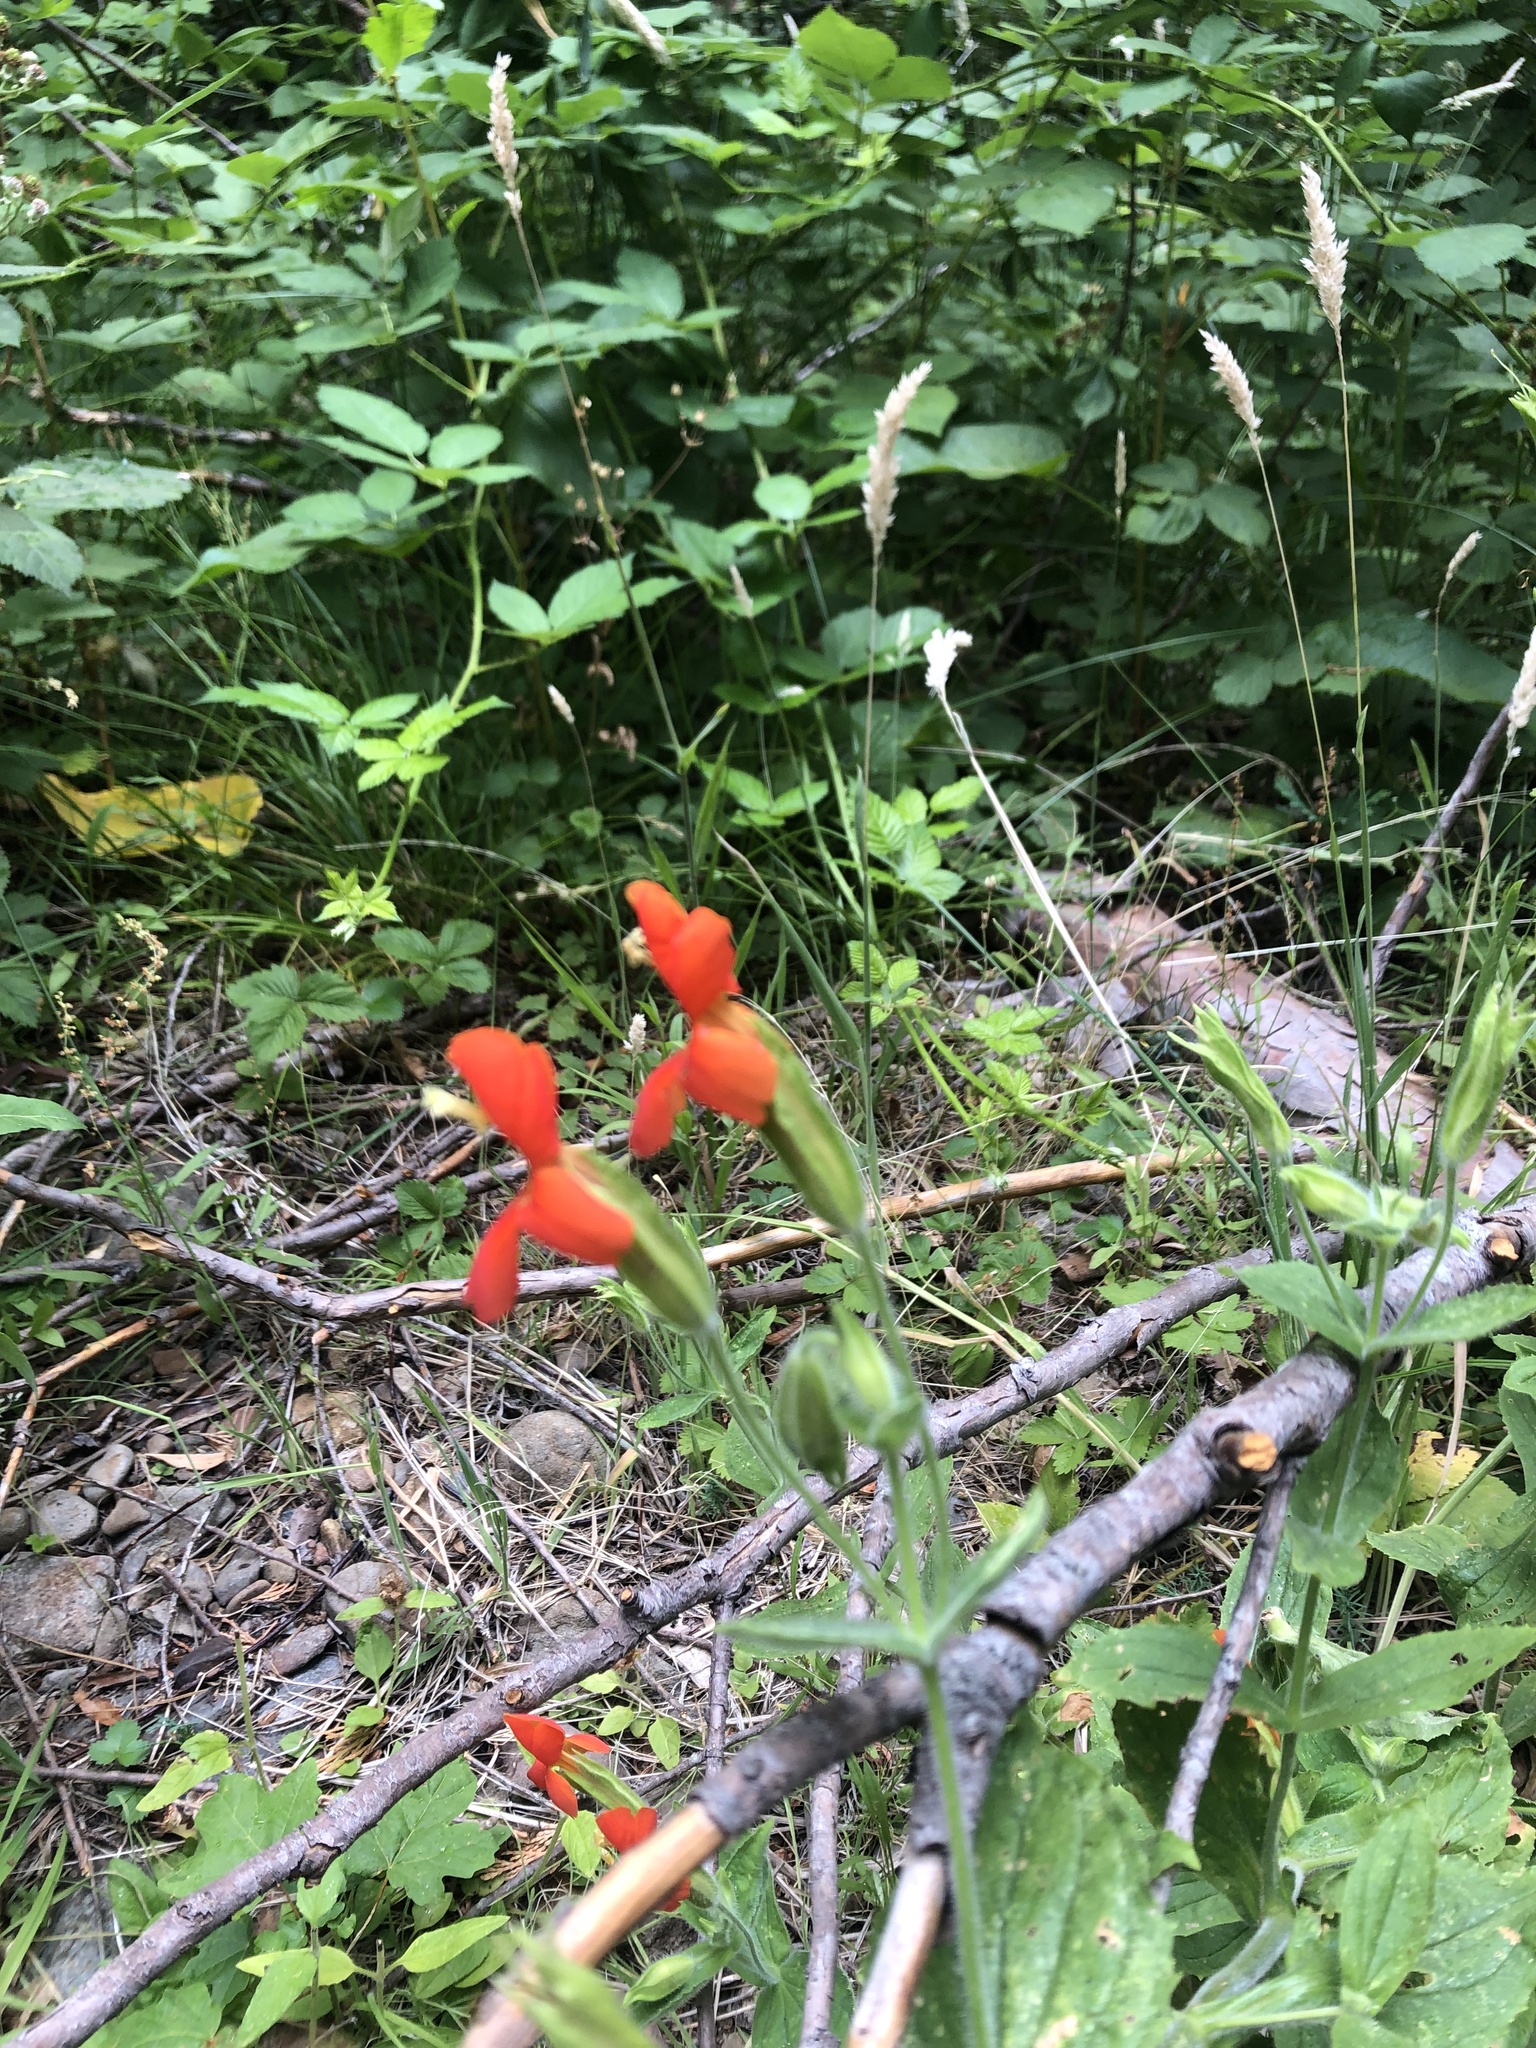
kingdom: Plantae
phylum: Tracheophyta
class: Magnoliopsida
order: Lamiales
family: Phrymaceae
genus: Erythranthe
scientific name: Erythranthe cardinalis
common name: Scarlet monkey-flower
